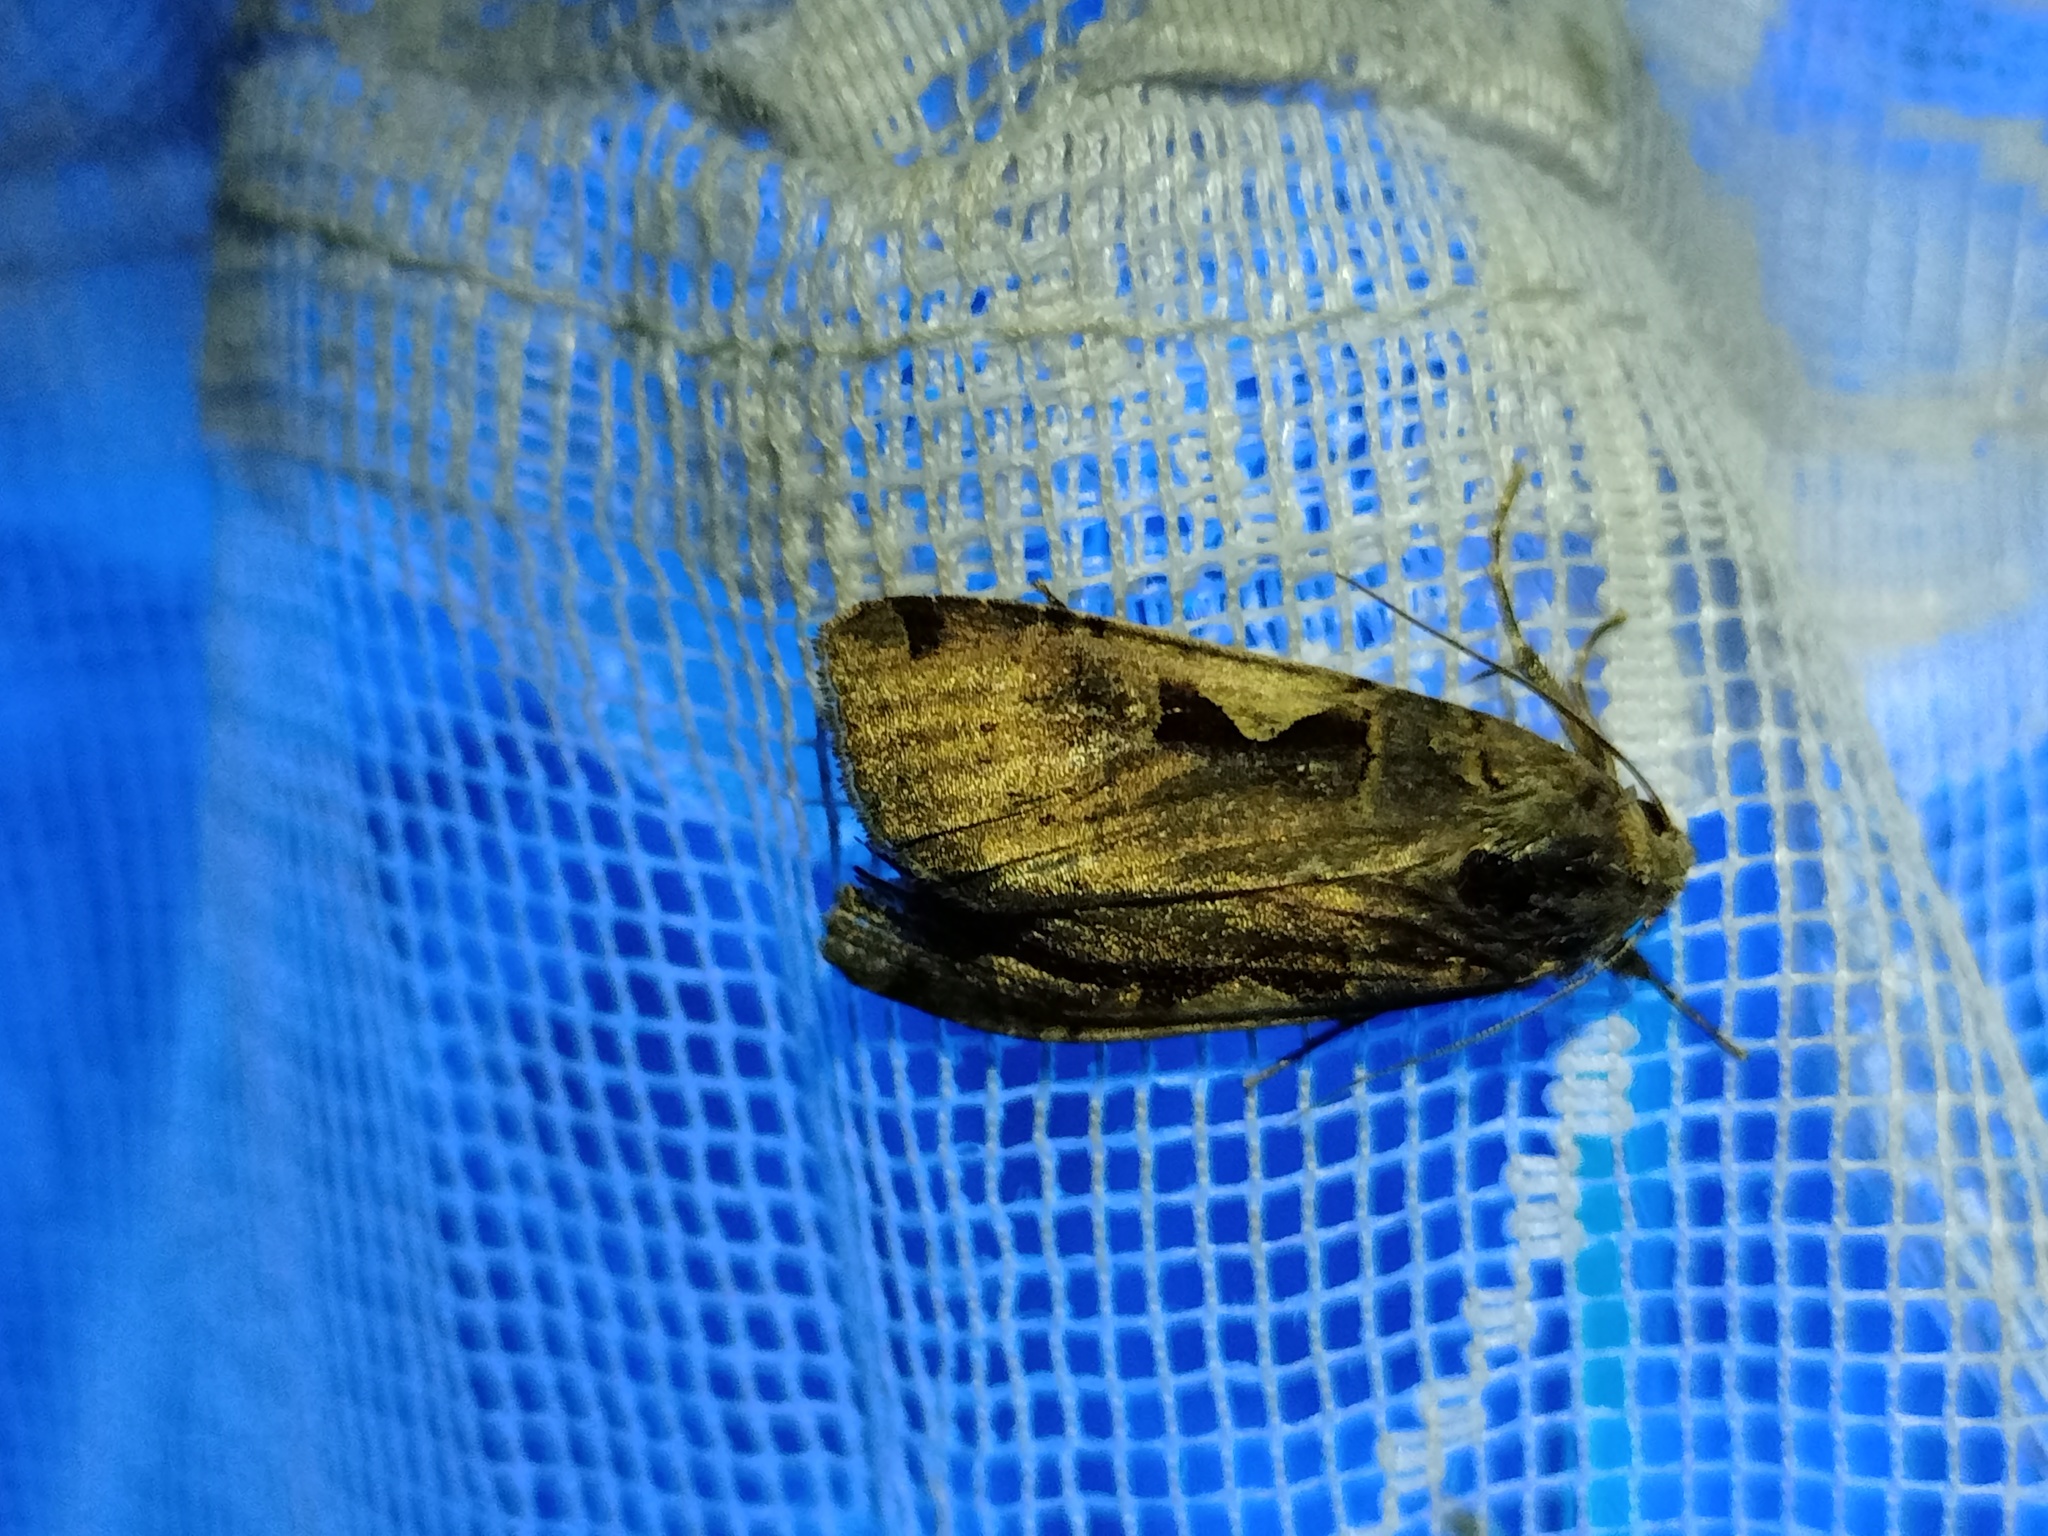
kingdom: Animalia
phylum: Arthropoda
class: Insecta
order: Lepidoptera
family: Noctuidae
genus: Xestia
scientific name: Xestia c-nigrum
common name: Setaceous hebrew character
